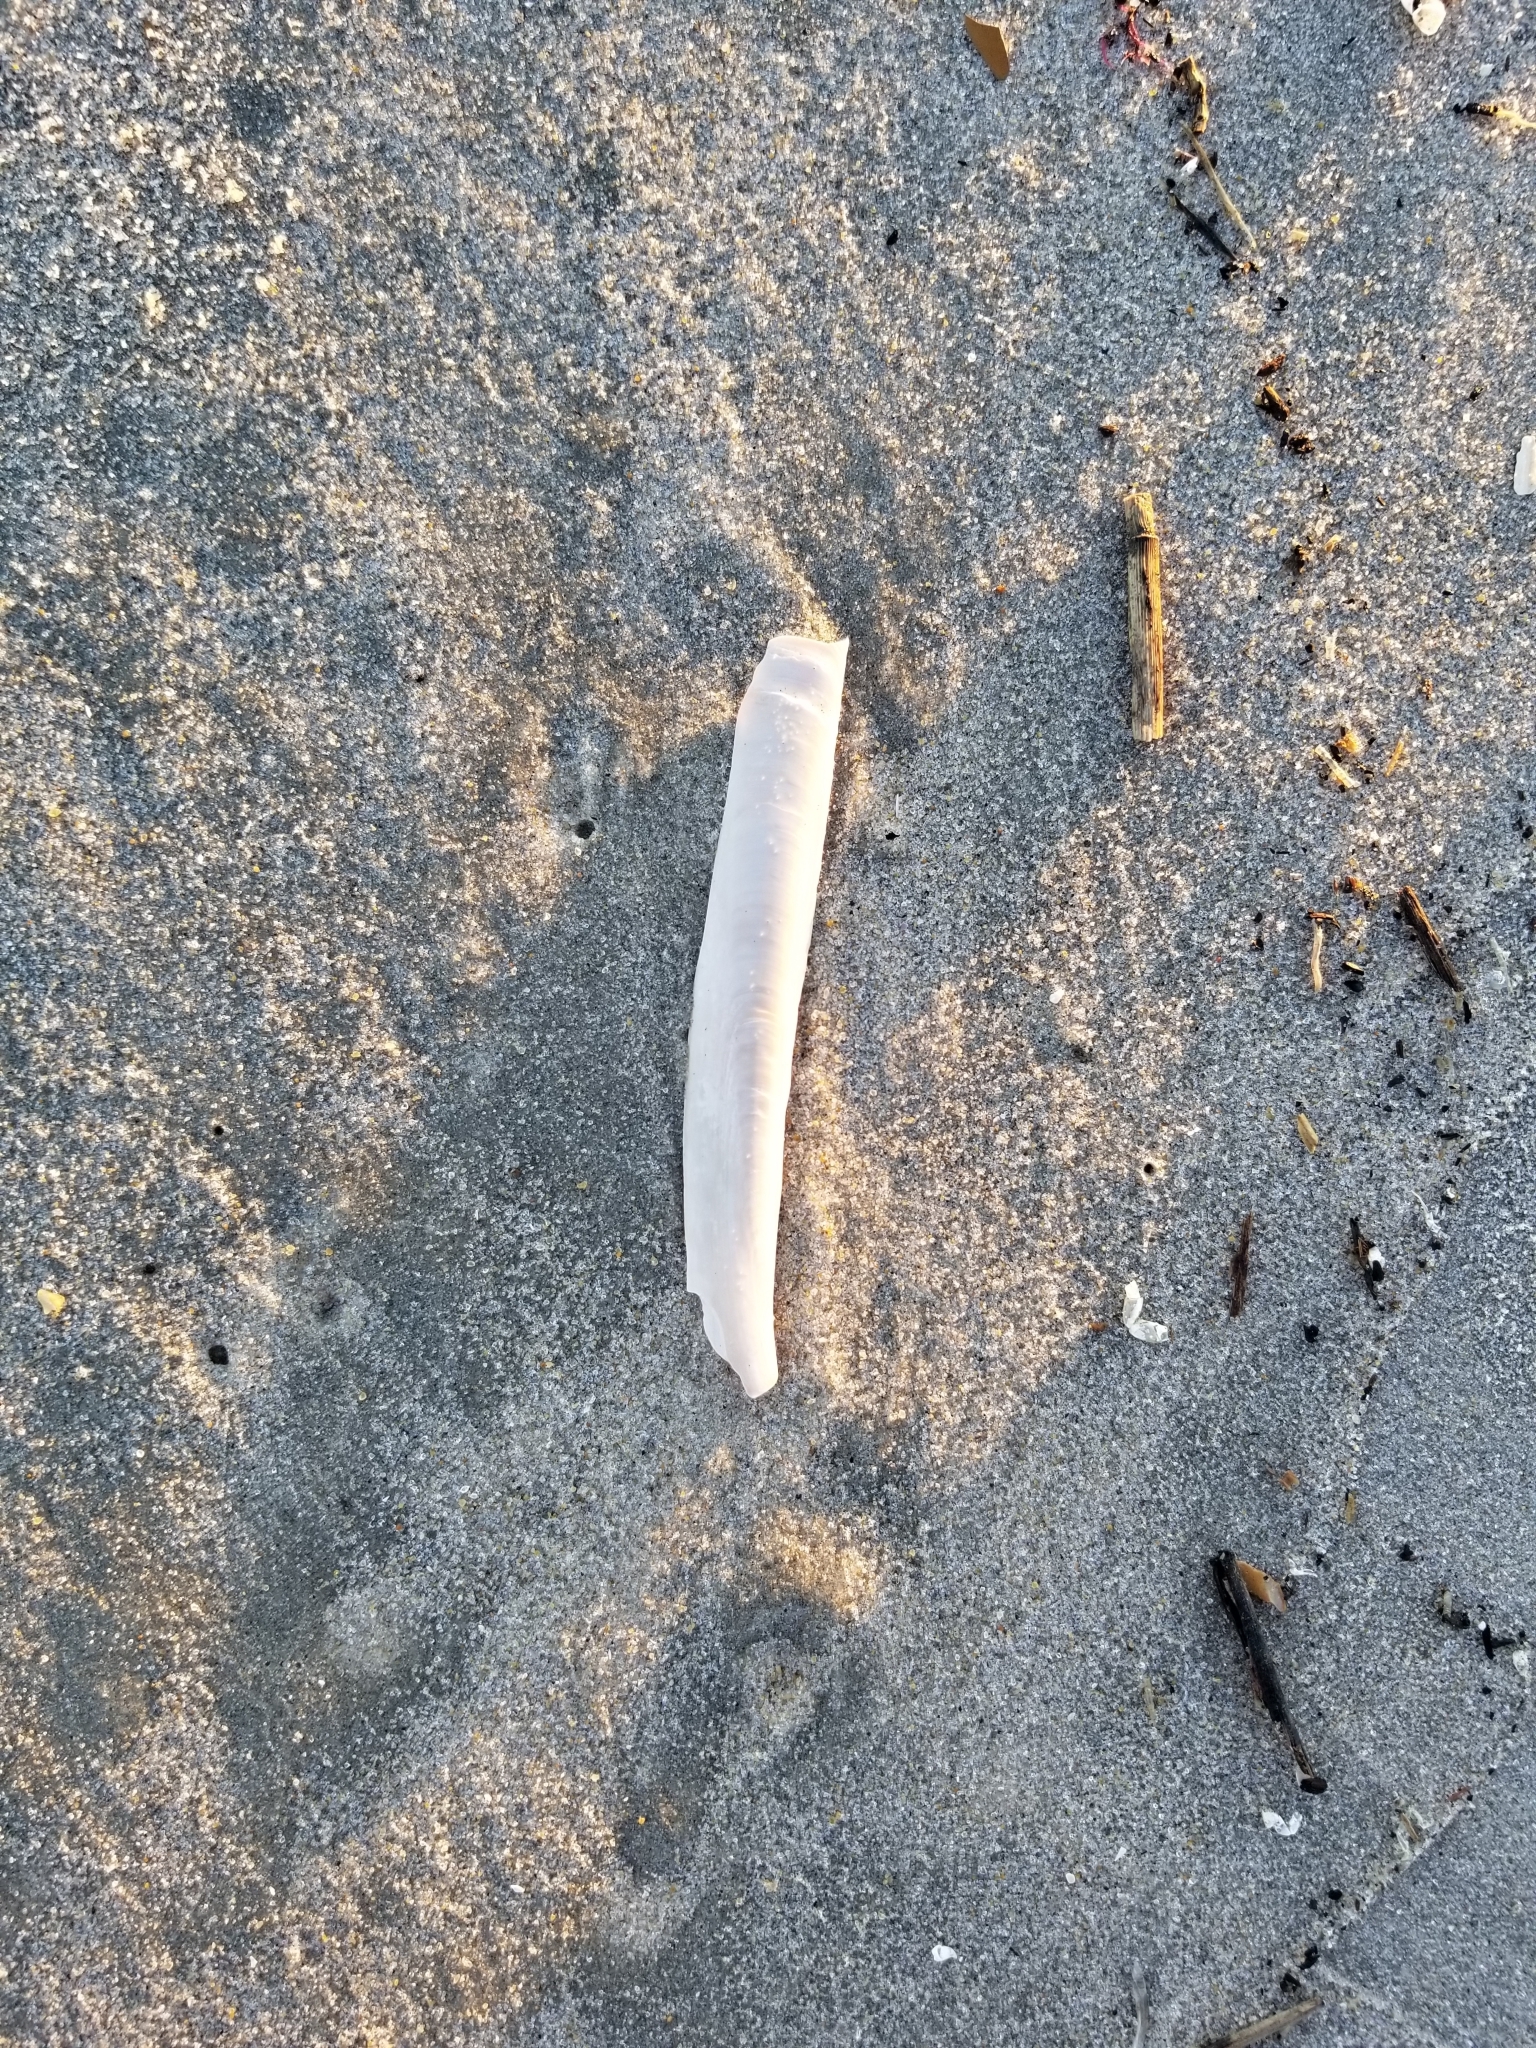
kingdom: Animalia
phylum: Mollusca
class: Bivalvia
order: Adapedonta
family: Pharidae
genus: Ensis
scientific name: Ensis leei
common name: American jack knife clam
